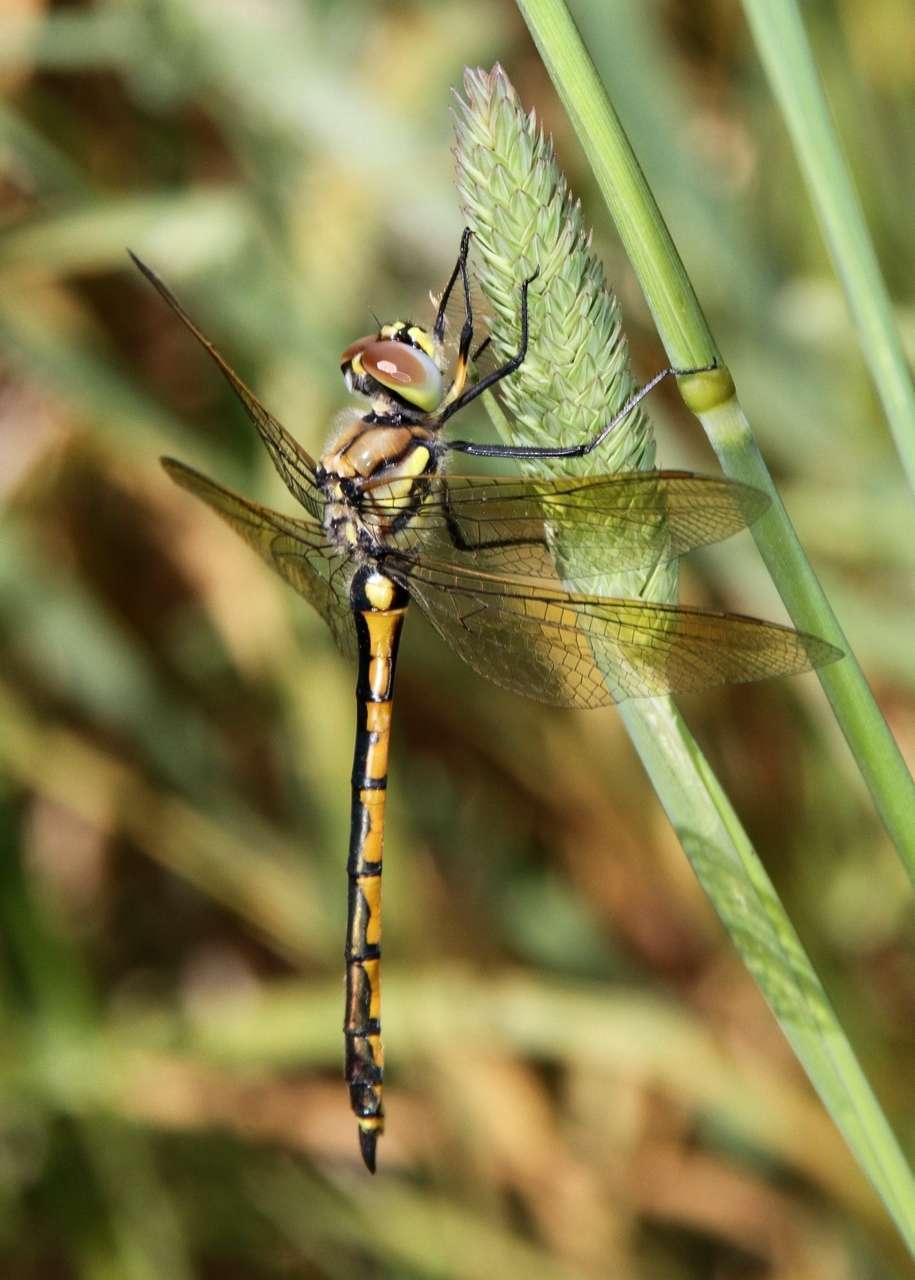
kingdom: Animalia
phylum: Arthropoda
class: Insecta
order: Odonata
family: Corduliidae
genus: Hemicordulia
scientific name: Hemicordulia tau
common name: Tau emerald
